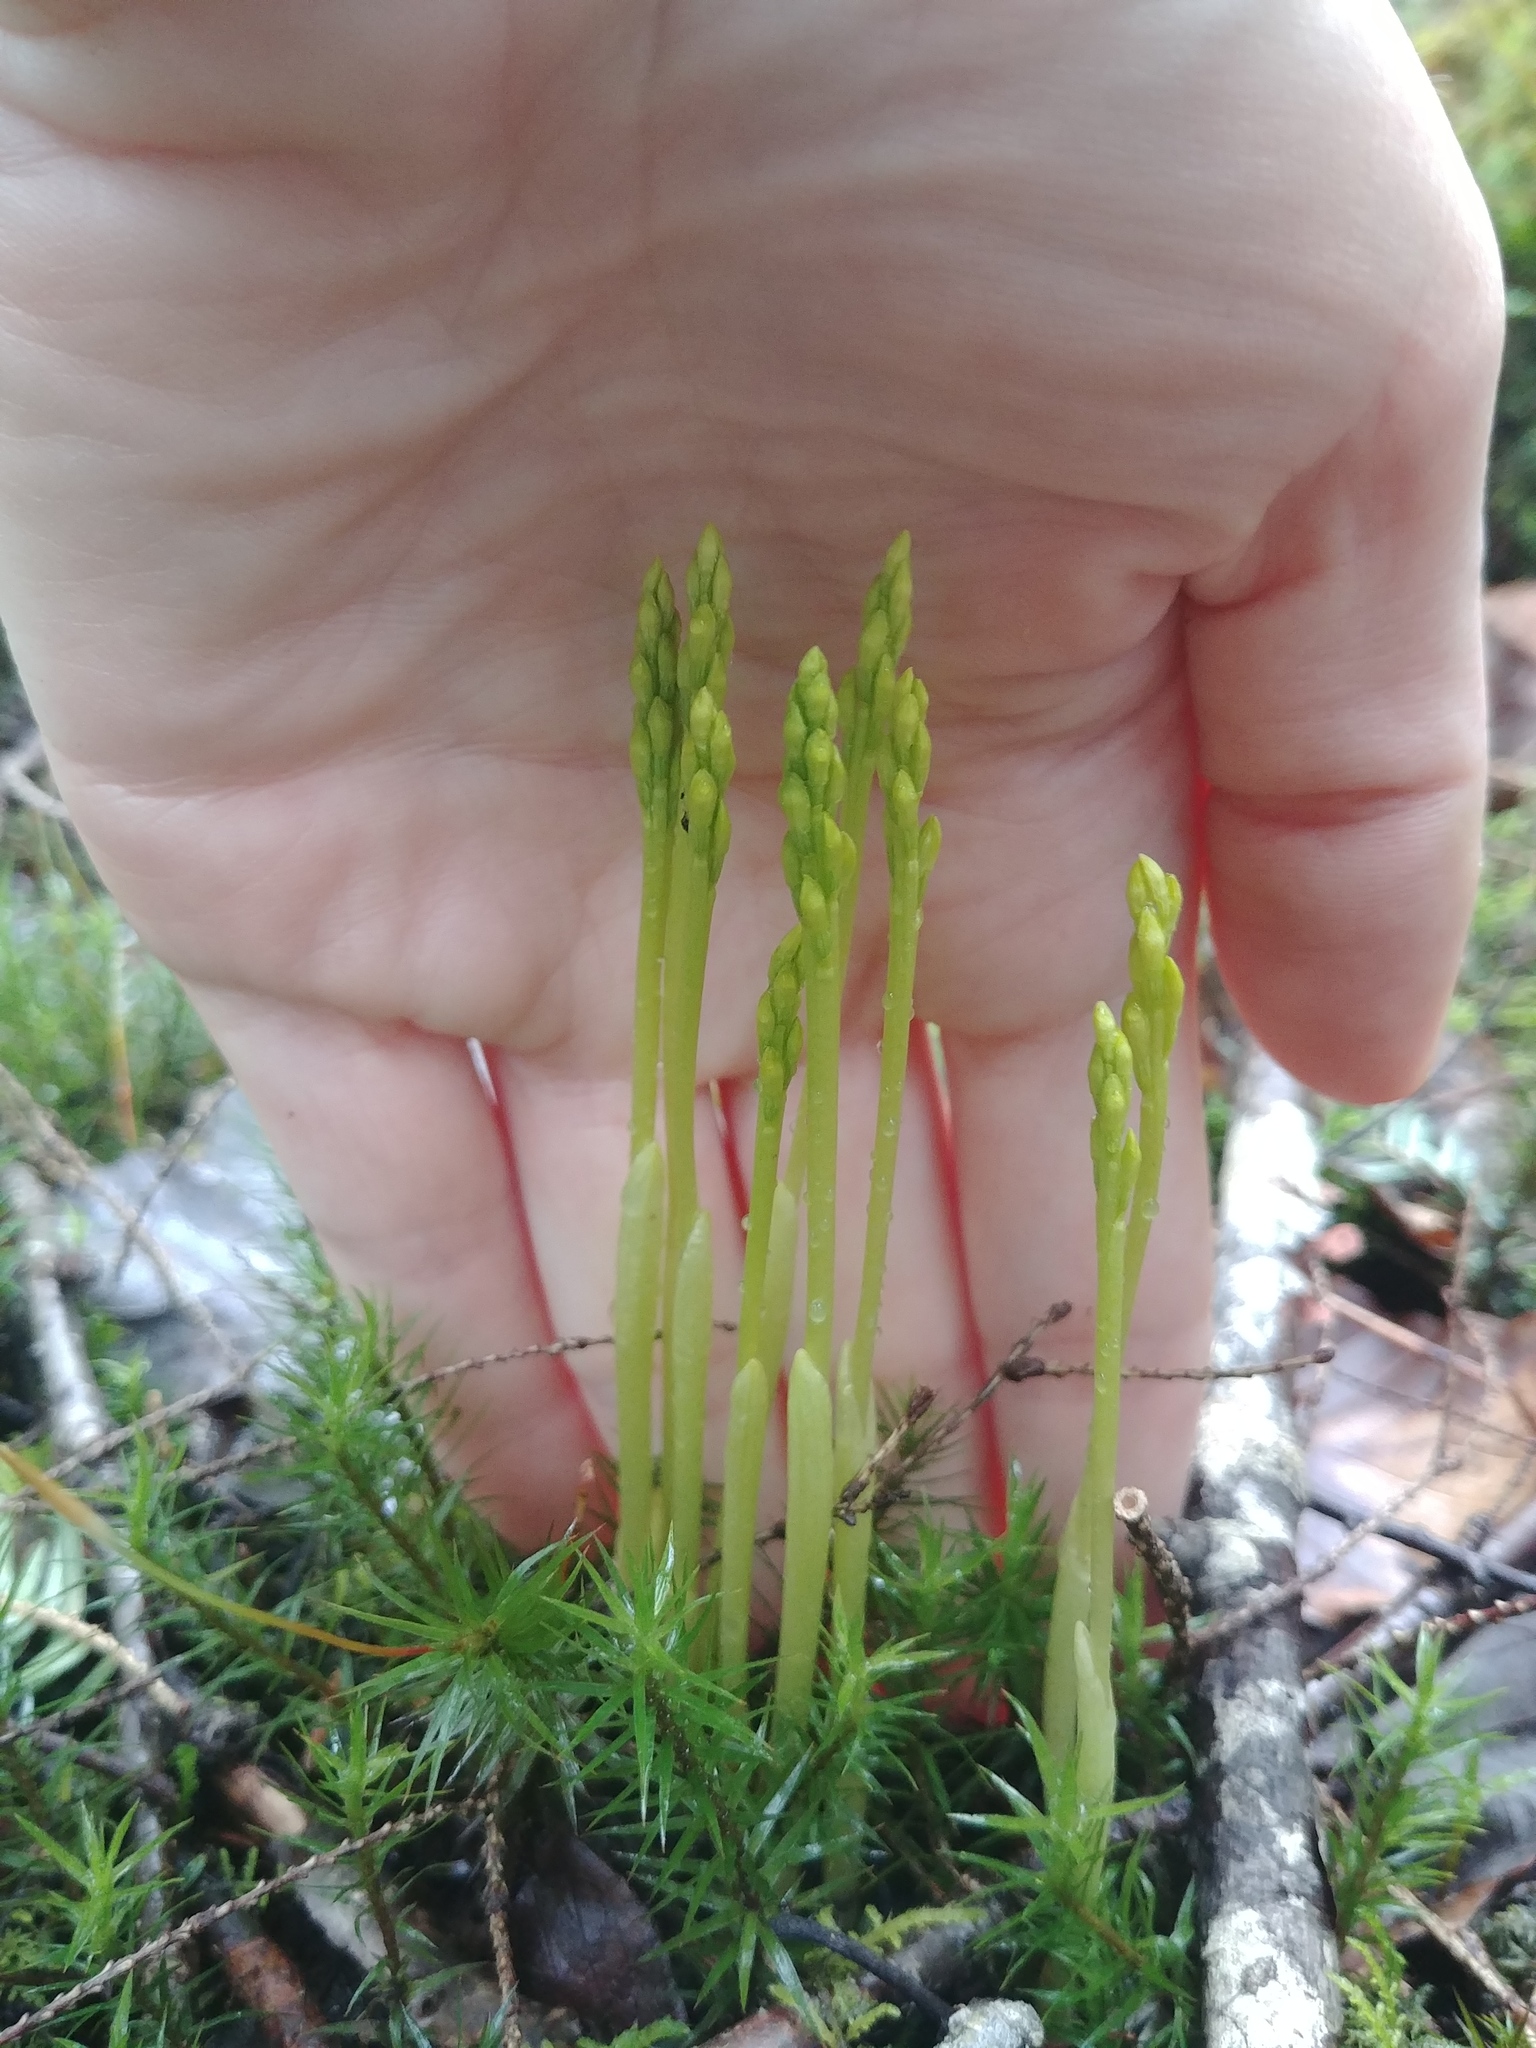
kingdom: Plantae
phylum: Tracheophyta
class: Liliopsida
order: Asparagales
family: Orchidaceae
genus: Corallorhiza
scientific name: Corallorhiza trifida
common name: Yellow coralroot
